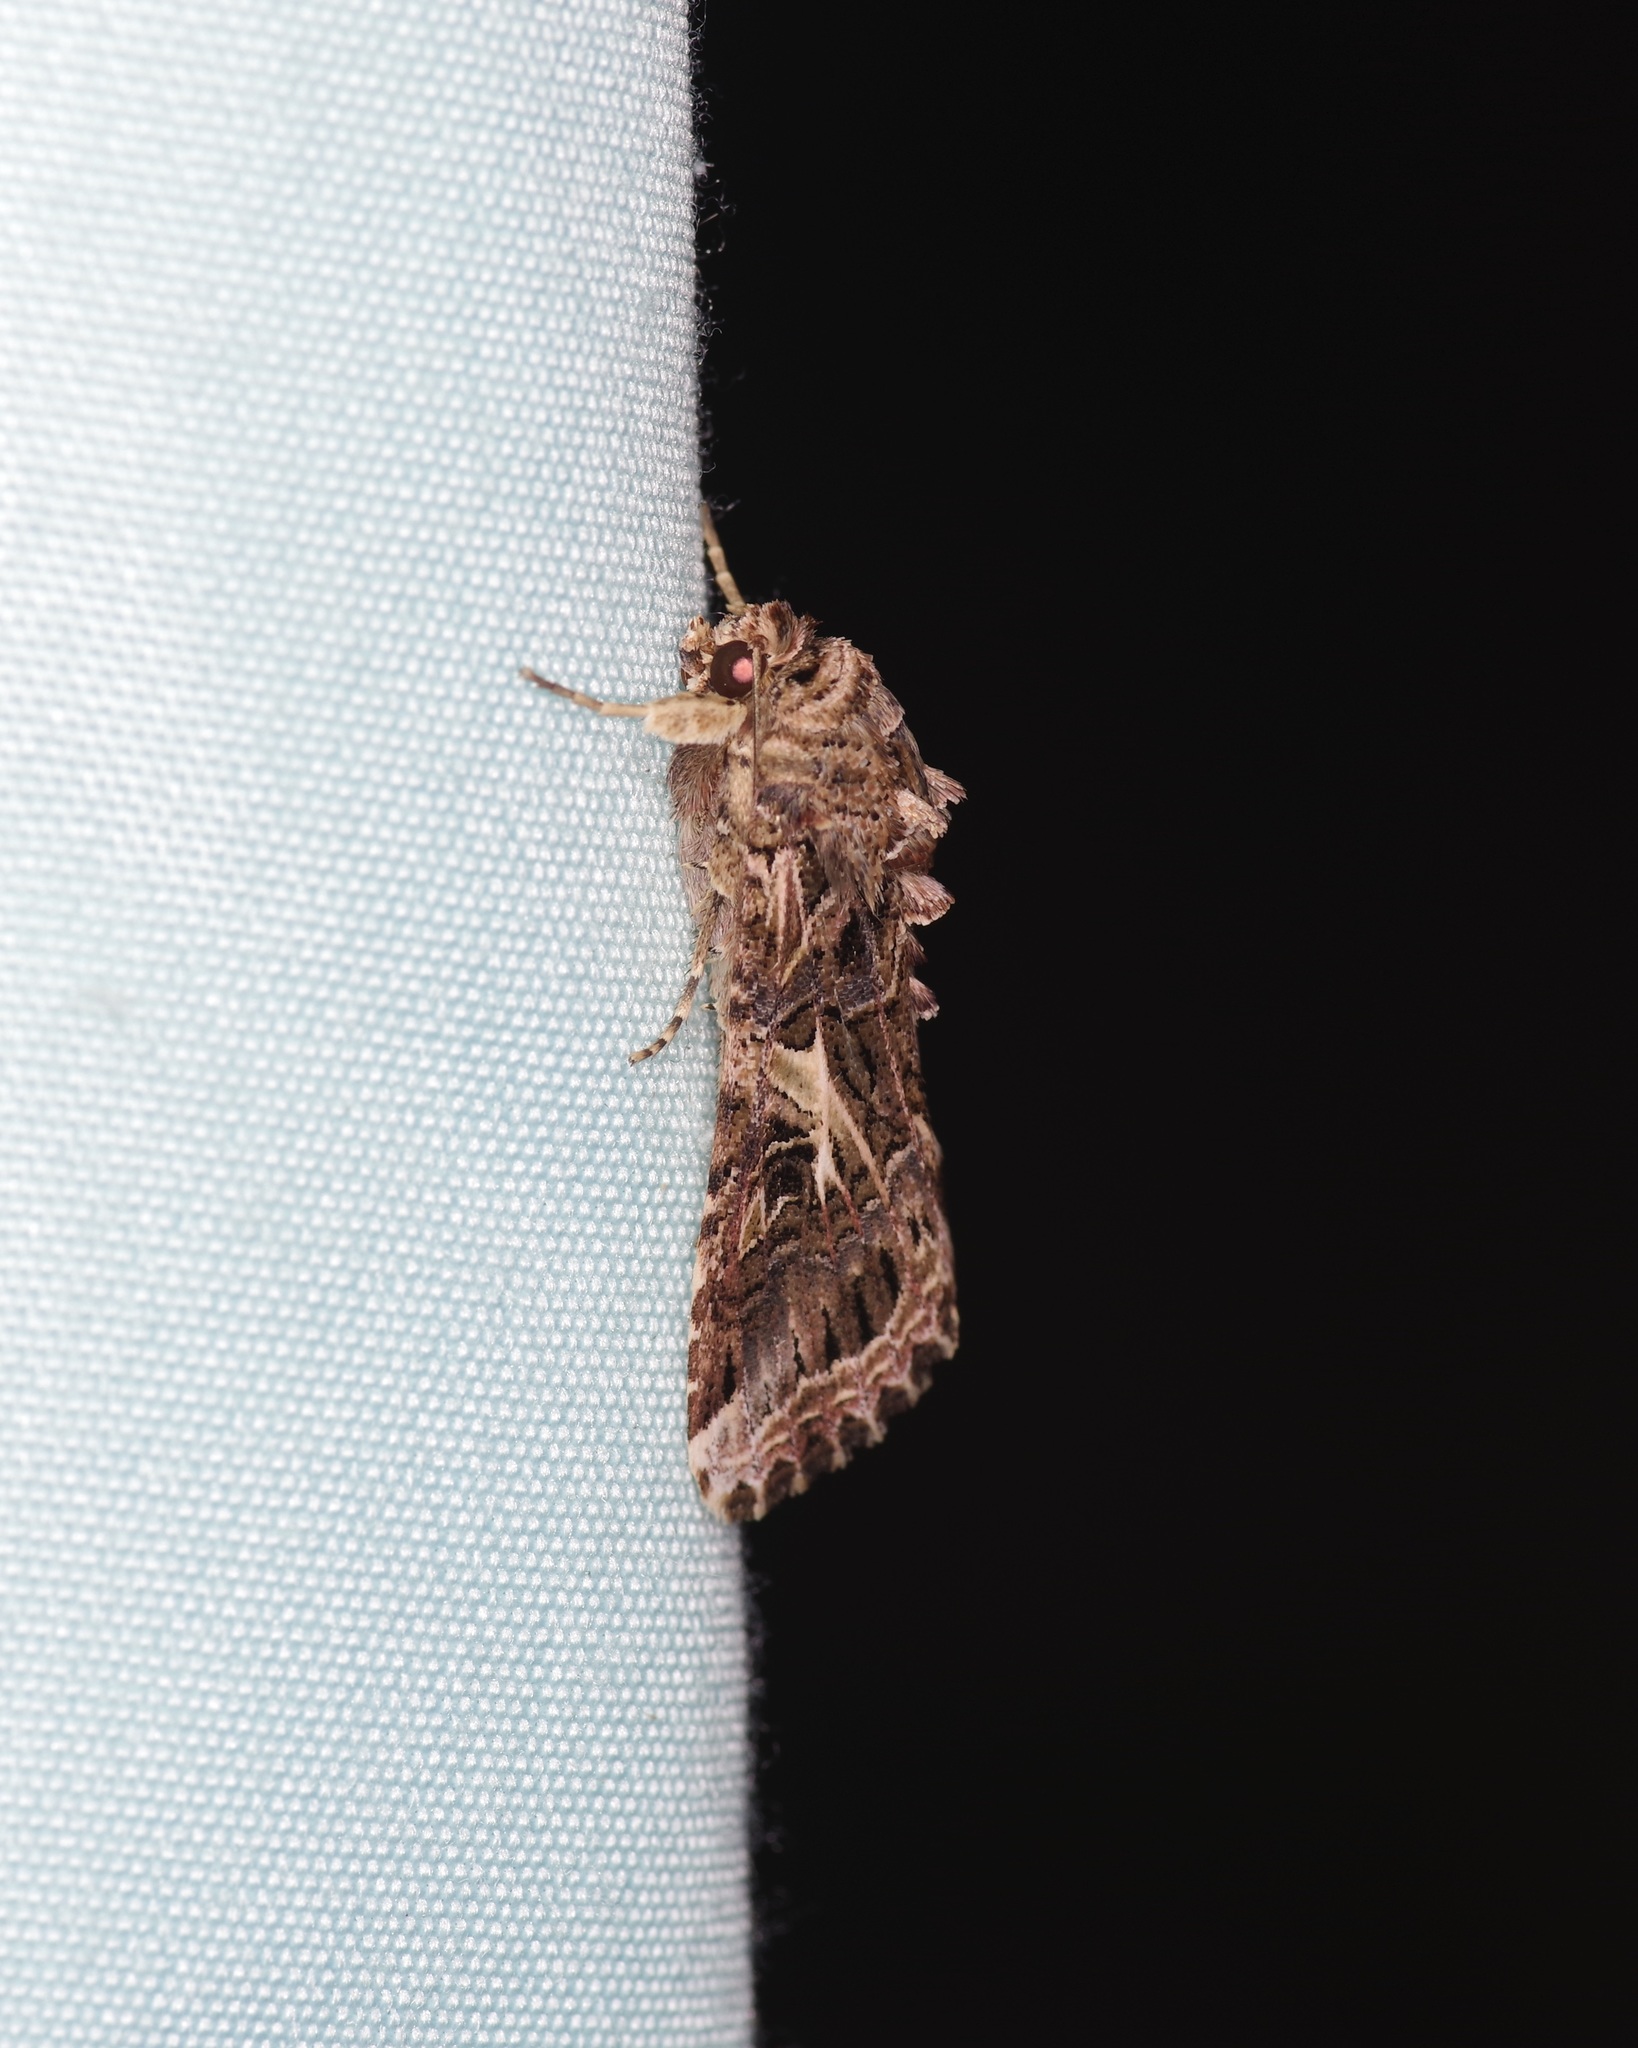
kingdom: Animalia
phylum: Arthropoda
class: Insecta
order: Lepidoptera
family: Noctuidae
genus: Spodoptera
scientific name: Spodoptera ornithogalli
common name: Yellow-striped armyworm
